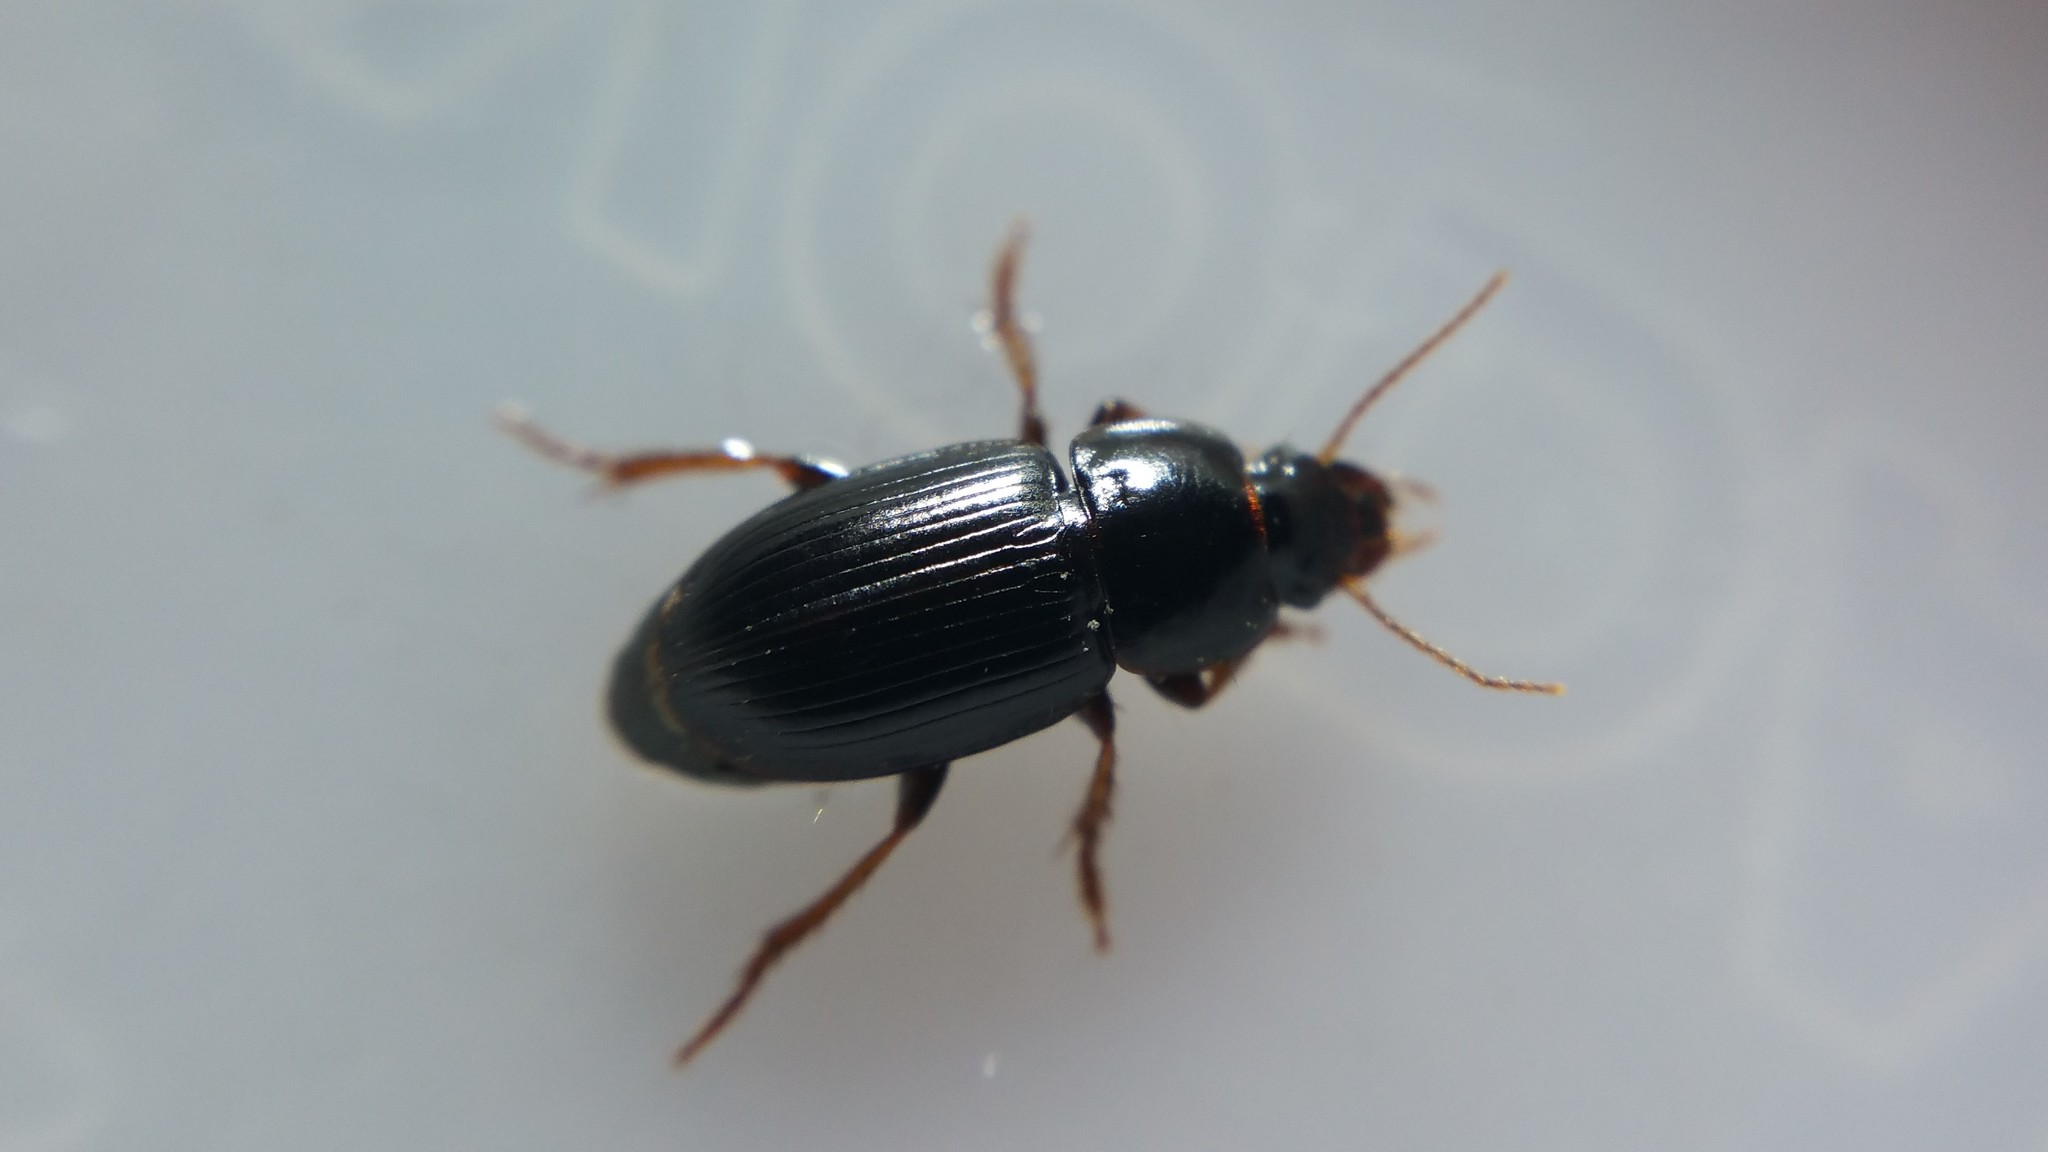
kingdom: Animalia
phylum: Arthropoda
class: Insecta
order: Coleoptera
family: Carabidae
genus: Harpalus
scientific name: Harpalus pumilus
